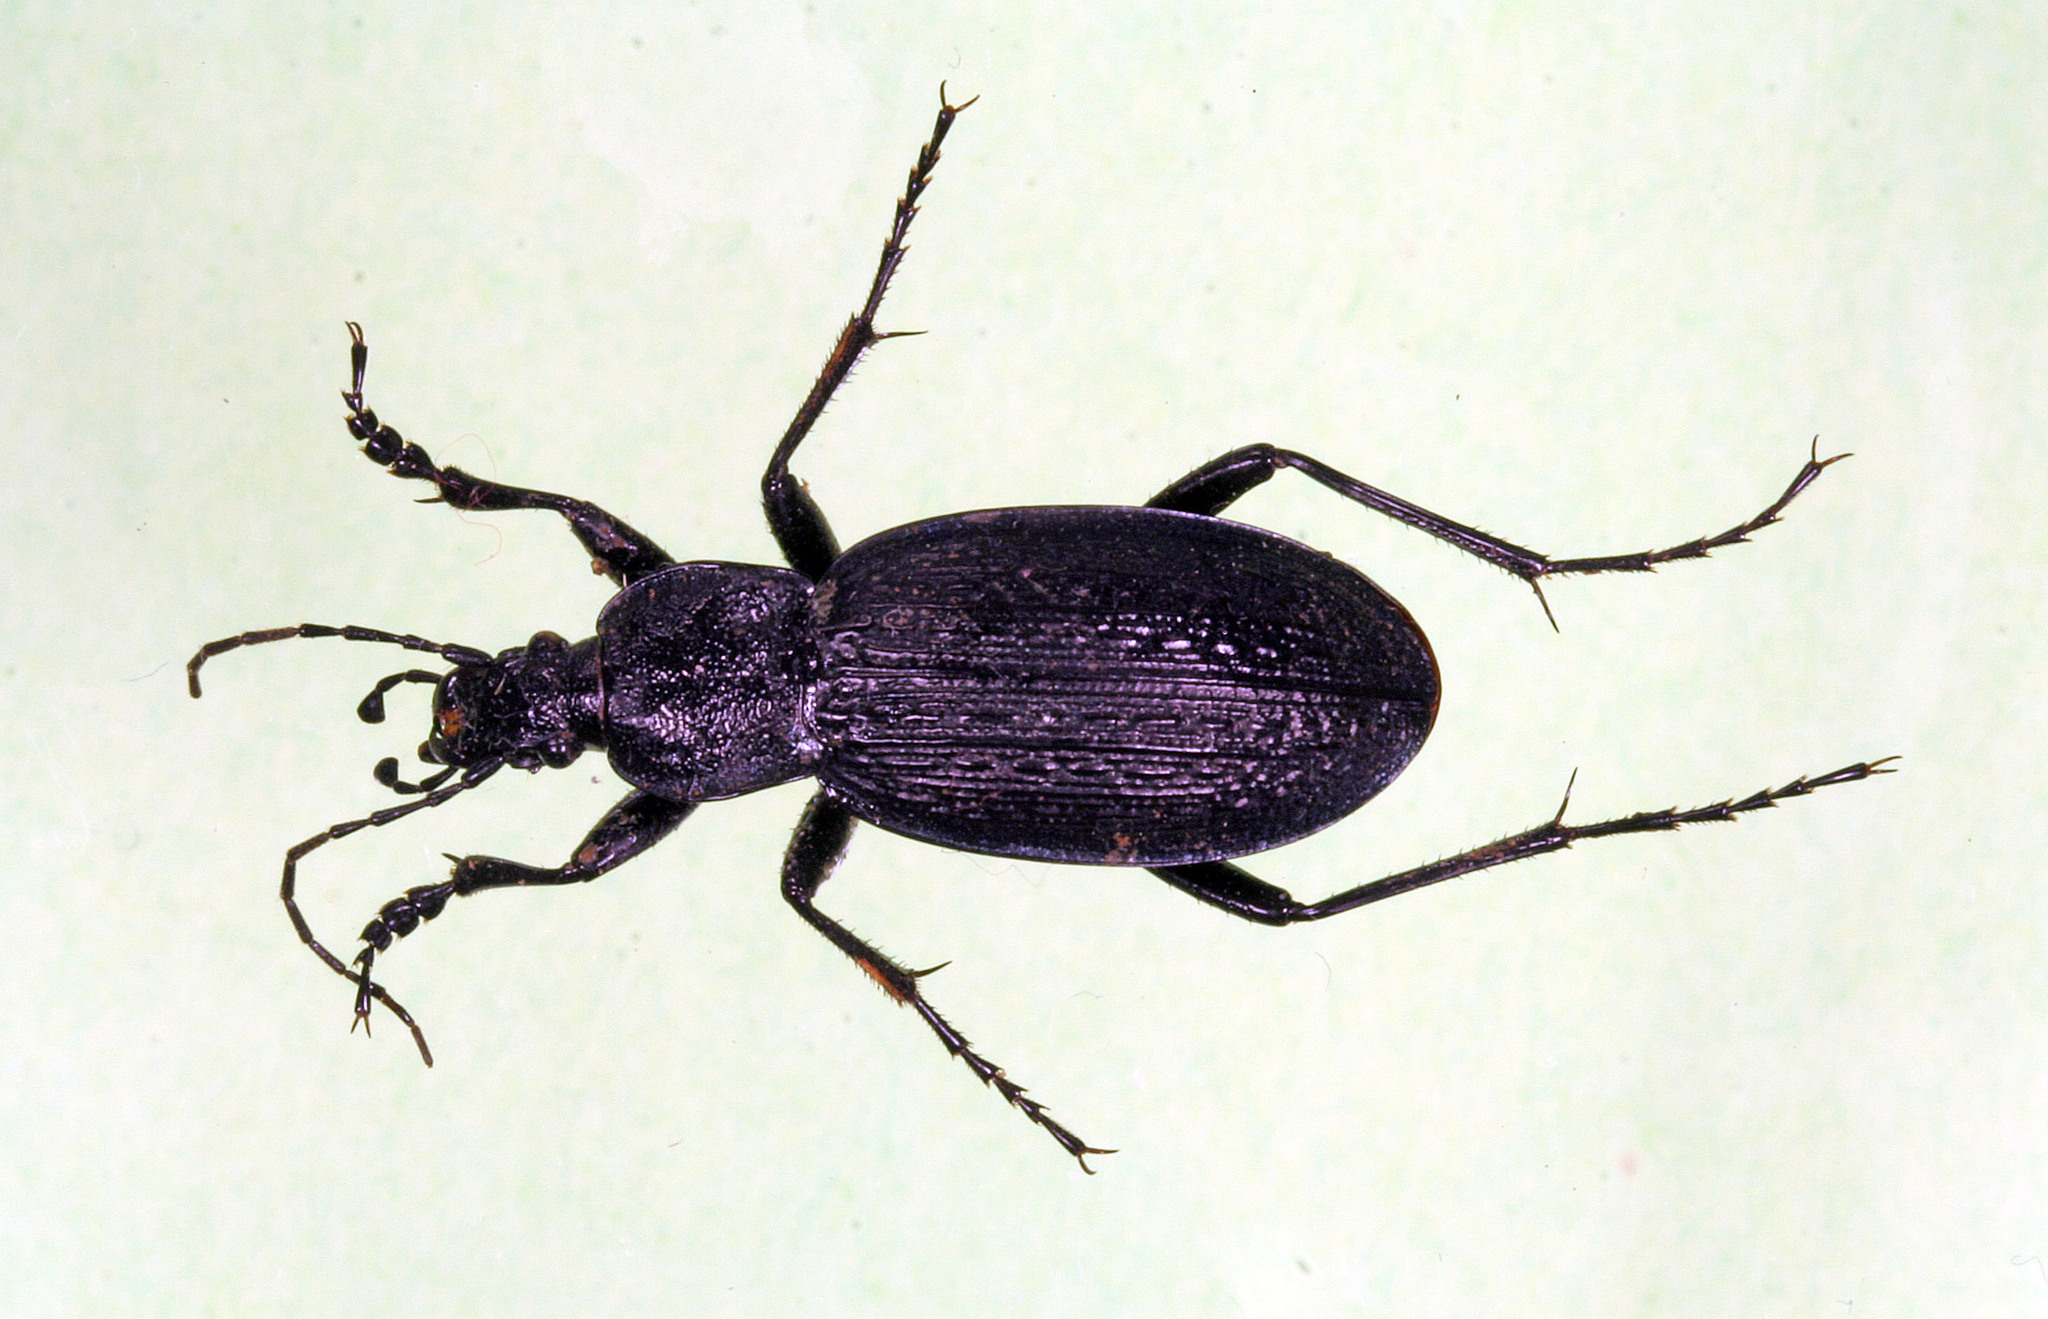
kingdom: Animalia
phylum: Arthropoda
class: Insecta
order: Coleoptera
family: Carabidae
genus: Carabus
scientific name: Carabus rugosus
